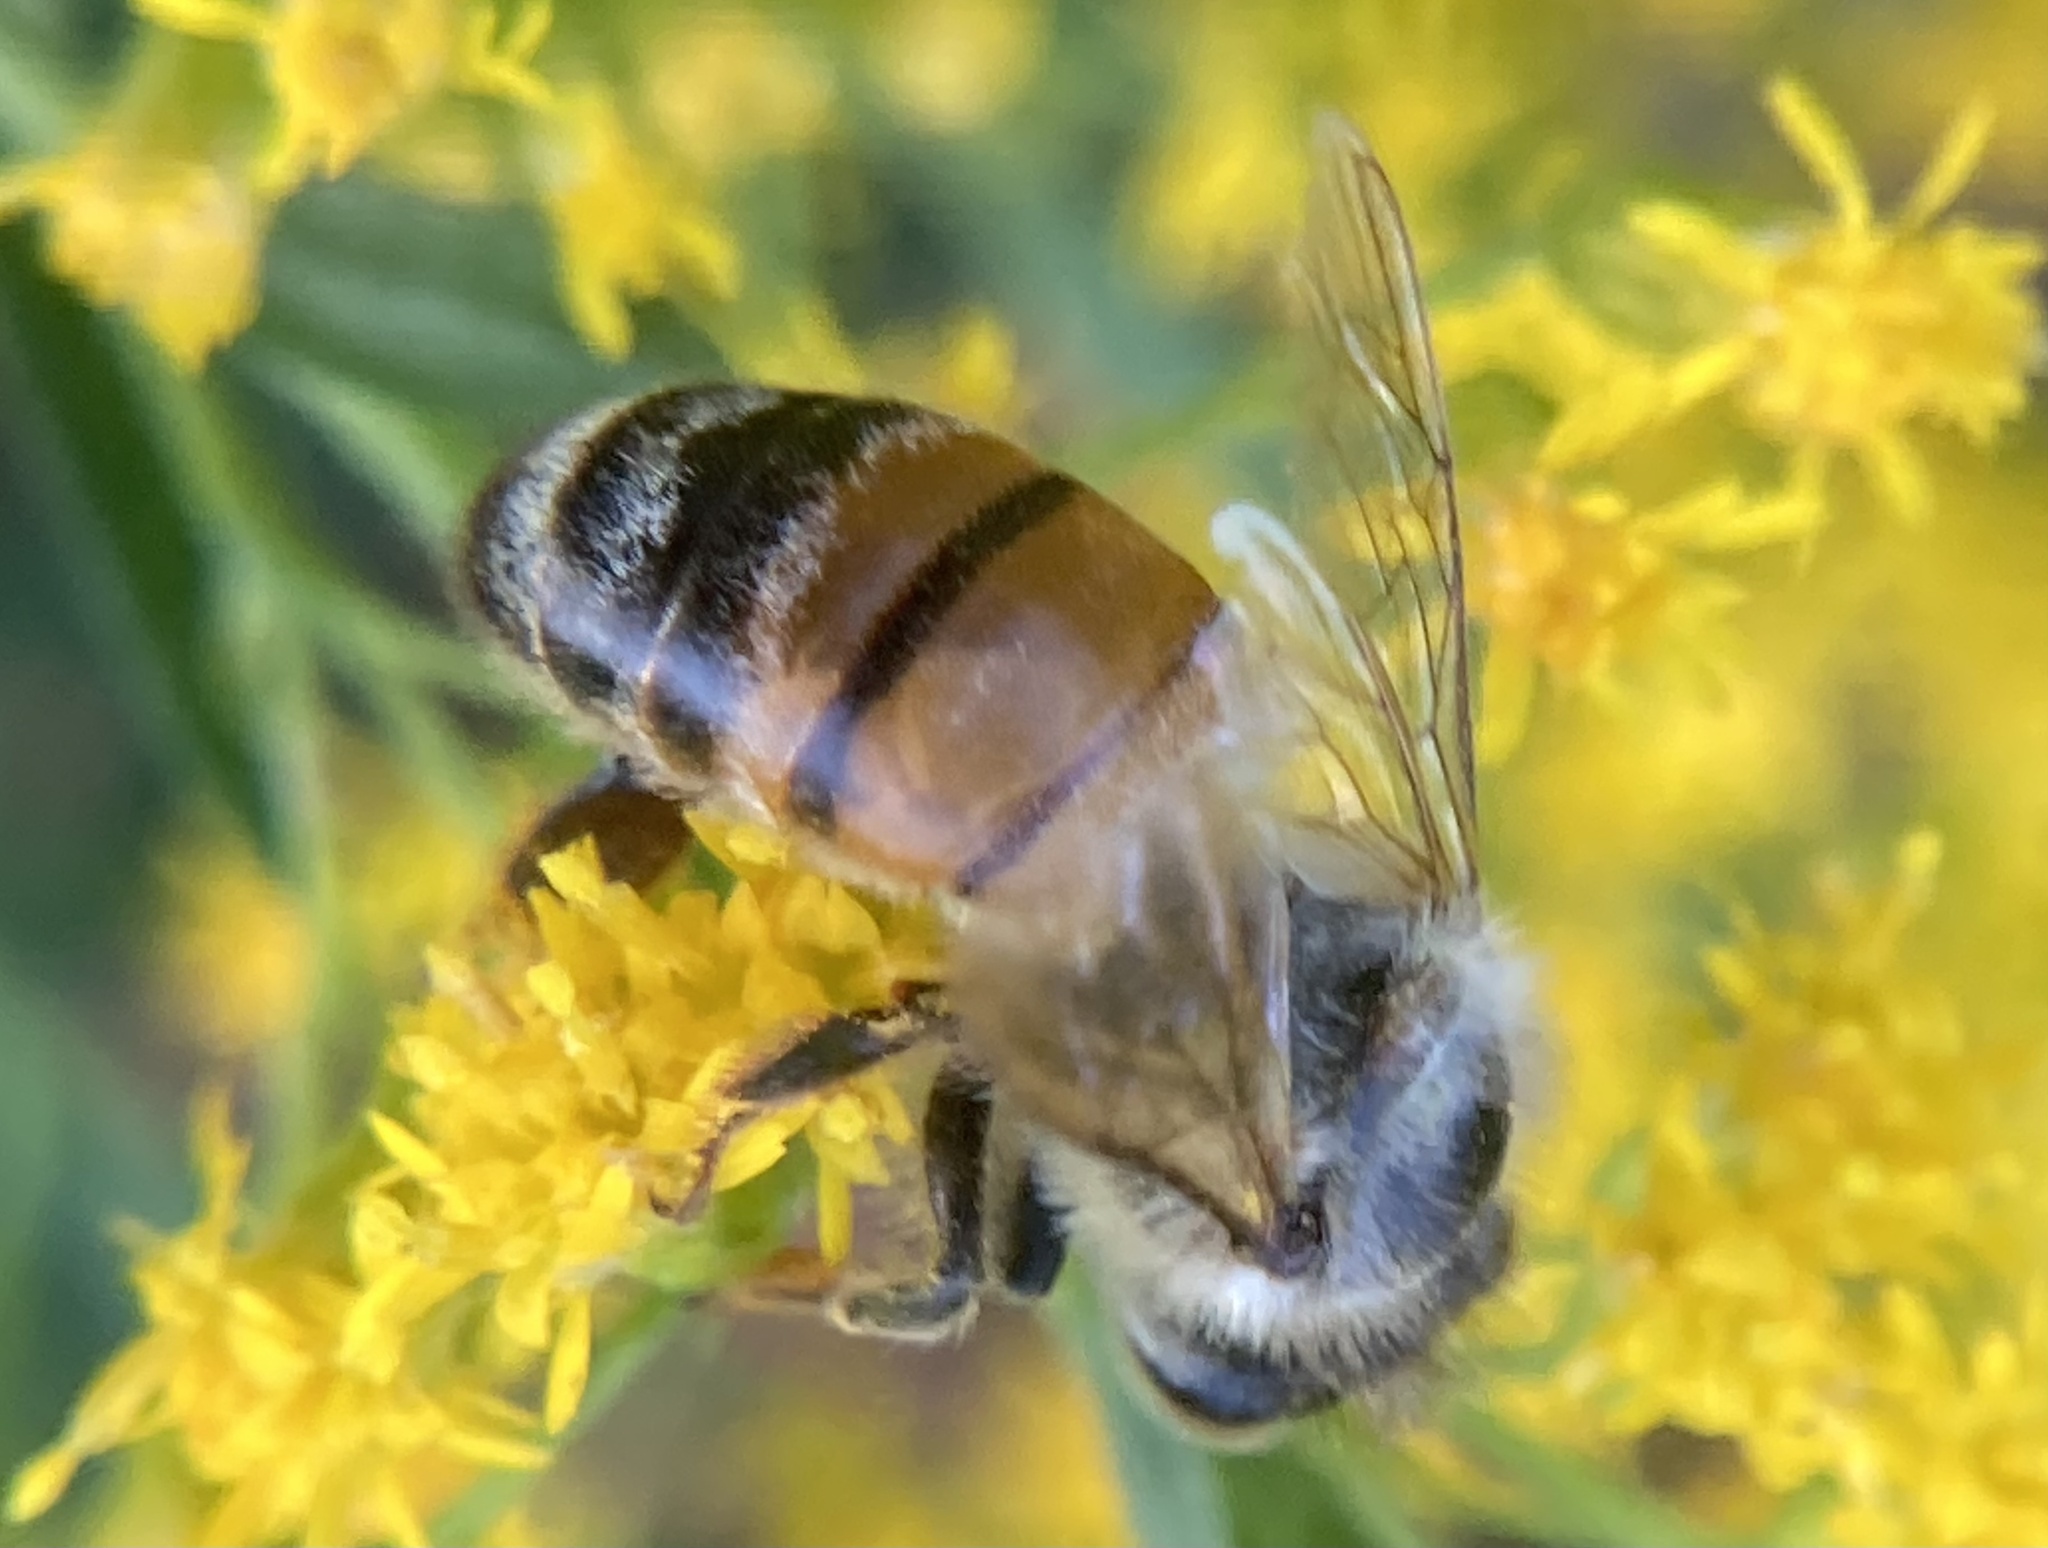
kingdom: Animalia
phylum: Arthropoda
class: Insecta
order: Hymenoptera
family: Apidae
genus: Apis
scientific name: Apis mellifera
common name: Honey bee
